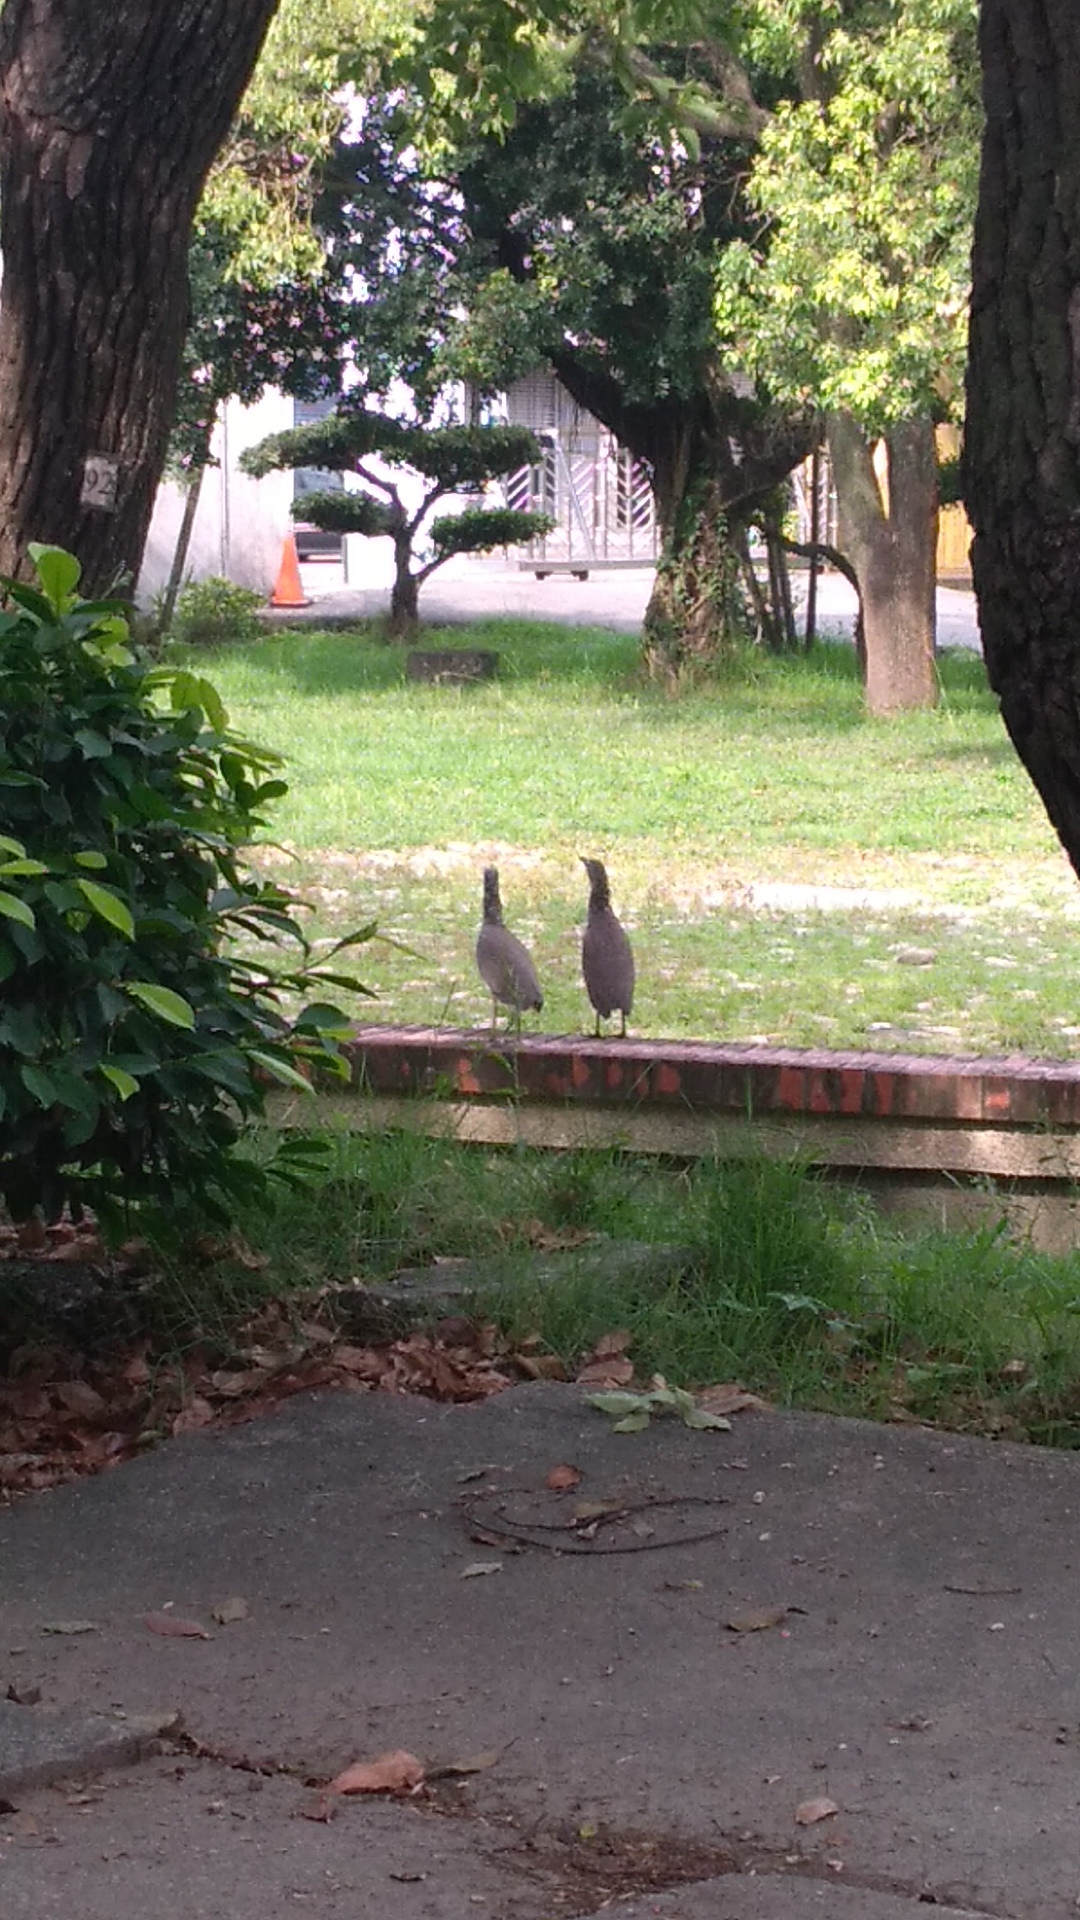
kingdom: Animalia
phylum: Chordata
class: Aves
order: Pelecaniformes
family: Ardeidae
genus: Gorsachius
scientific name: Gorsachius melanolophus
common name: Malayan night heron
